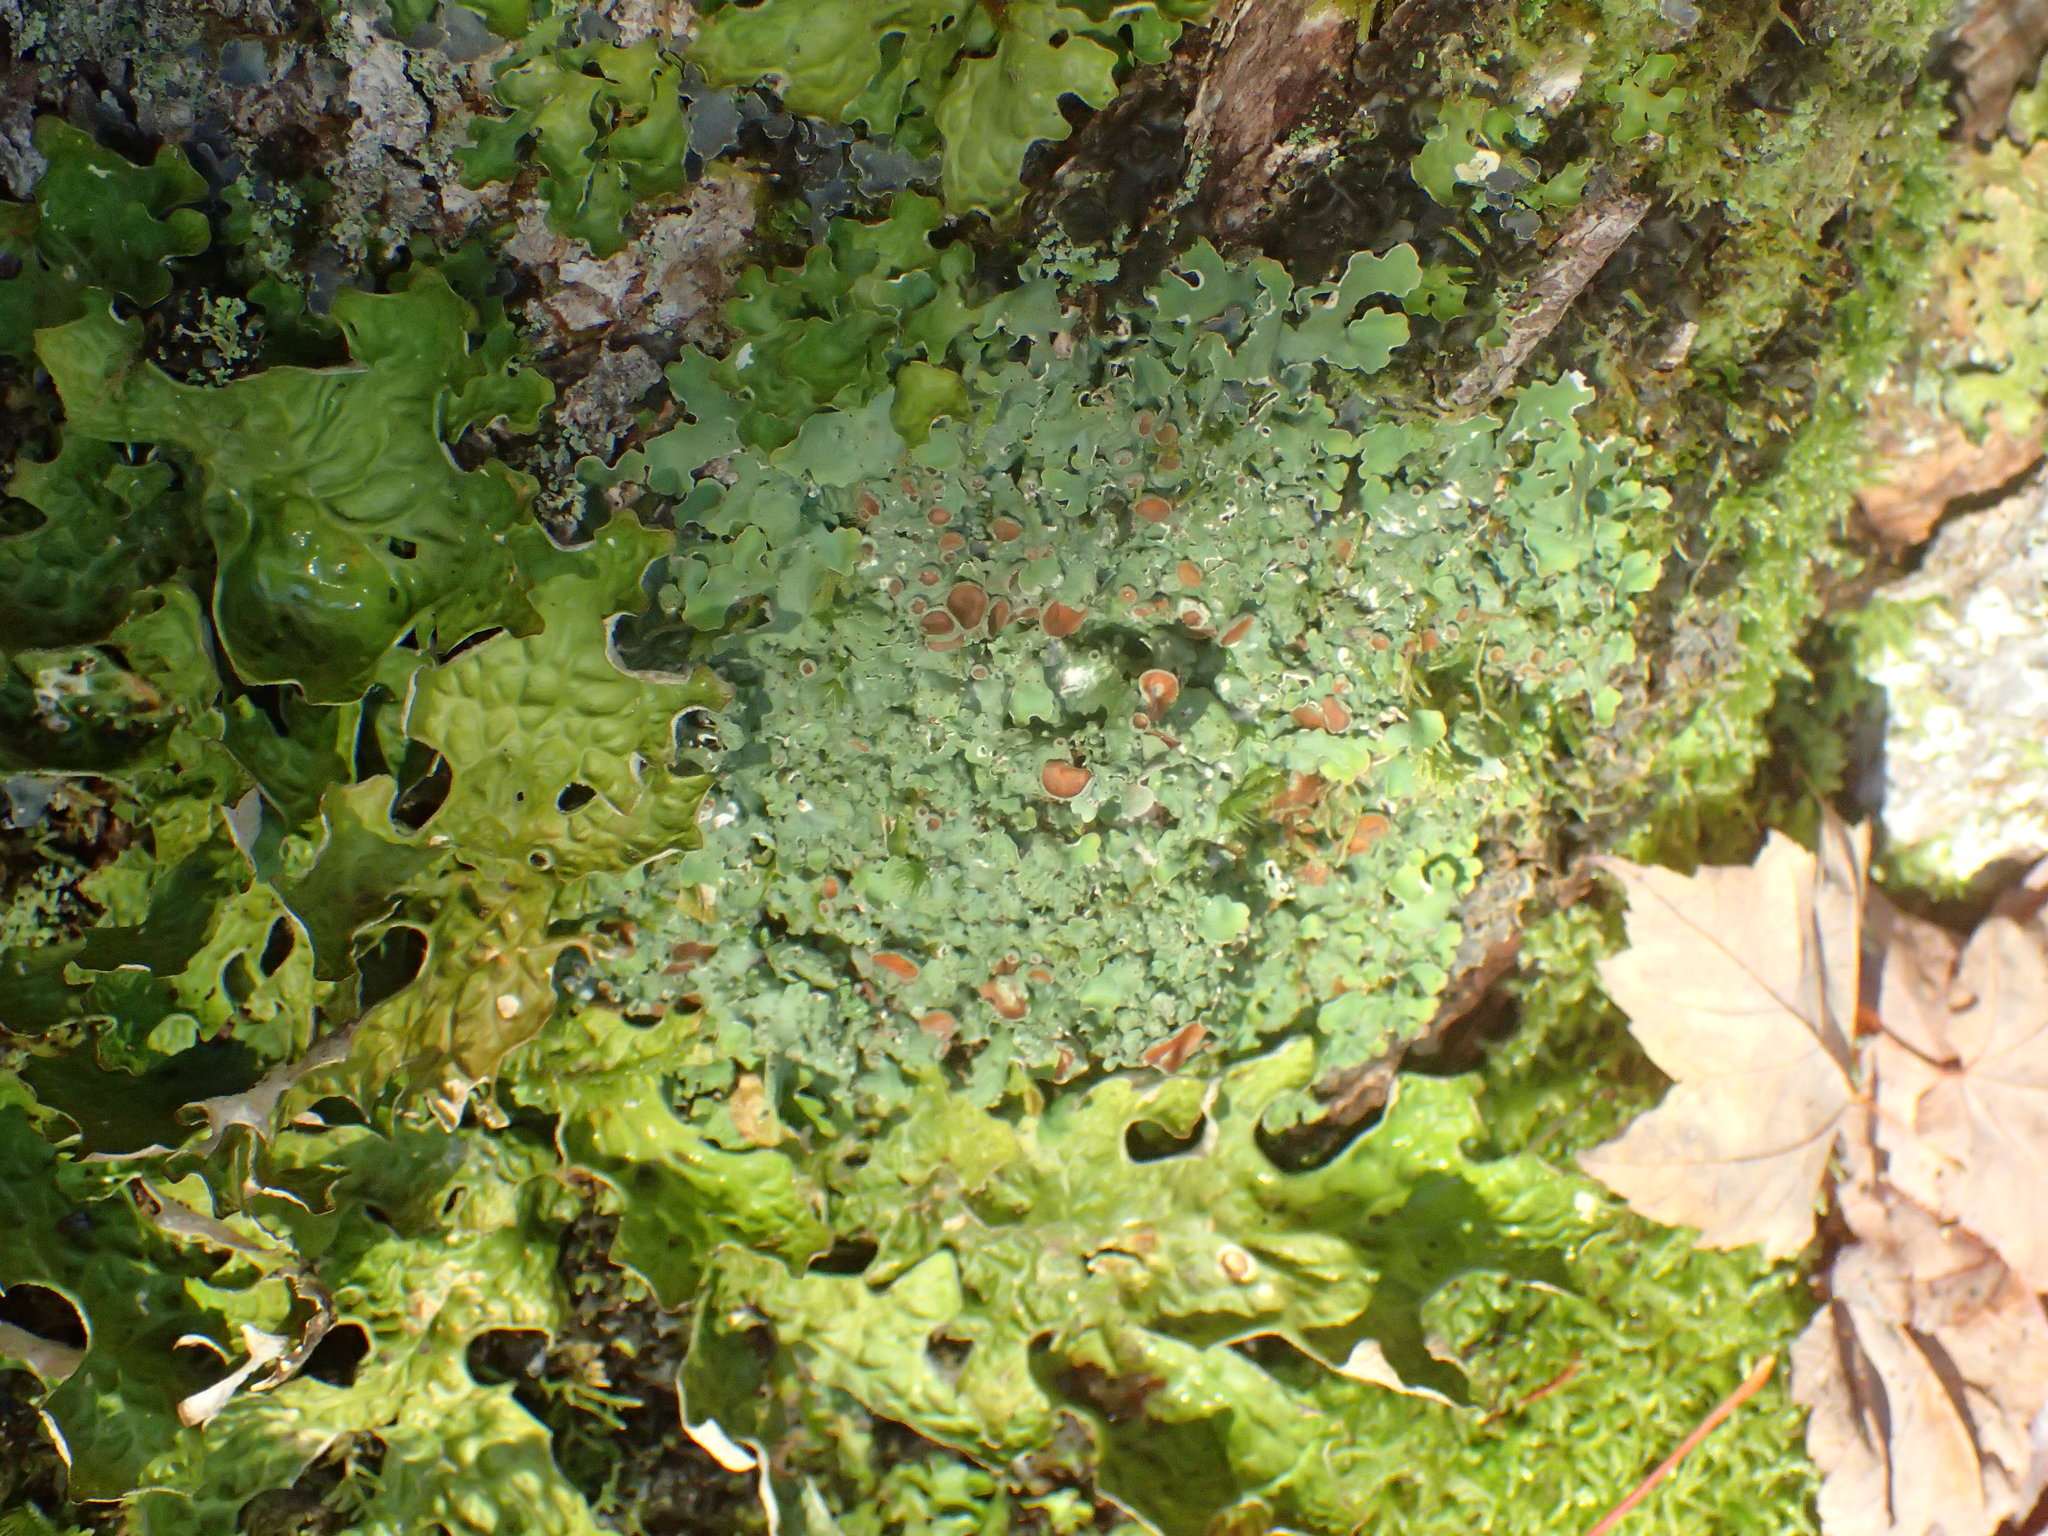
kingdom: Fungi
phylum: Ascomycota
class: Lecanoromycetes
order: Peltigerales
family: Lobariaceae
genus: Ricasolia
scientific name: Ricasolia quercizans
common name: Smooth lungwort
